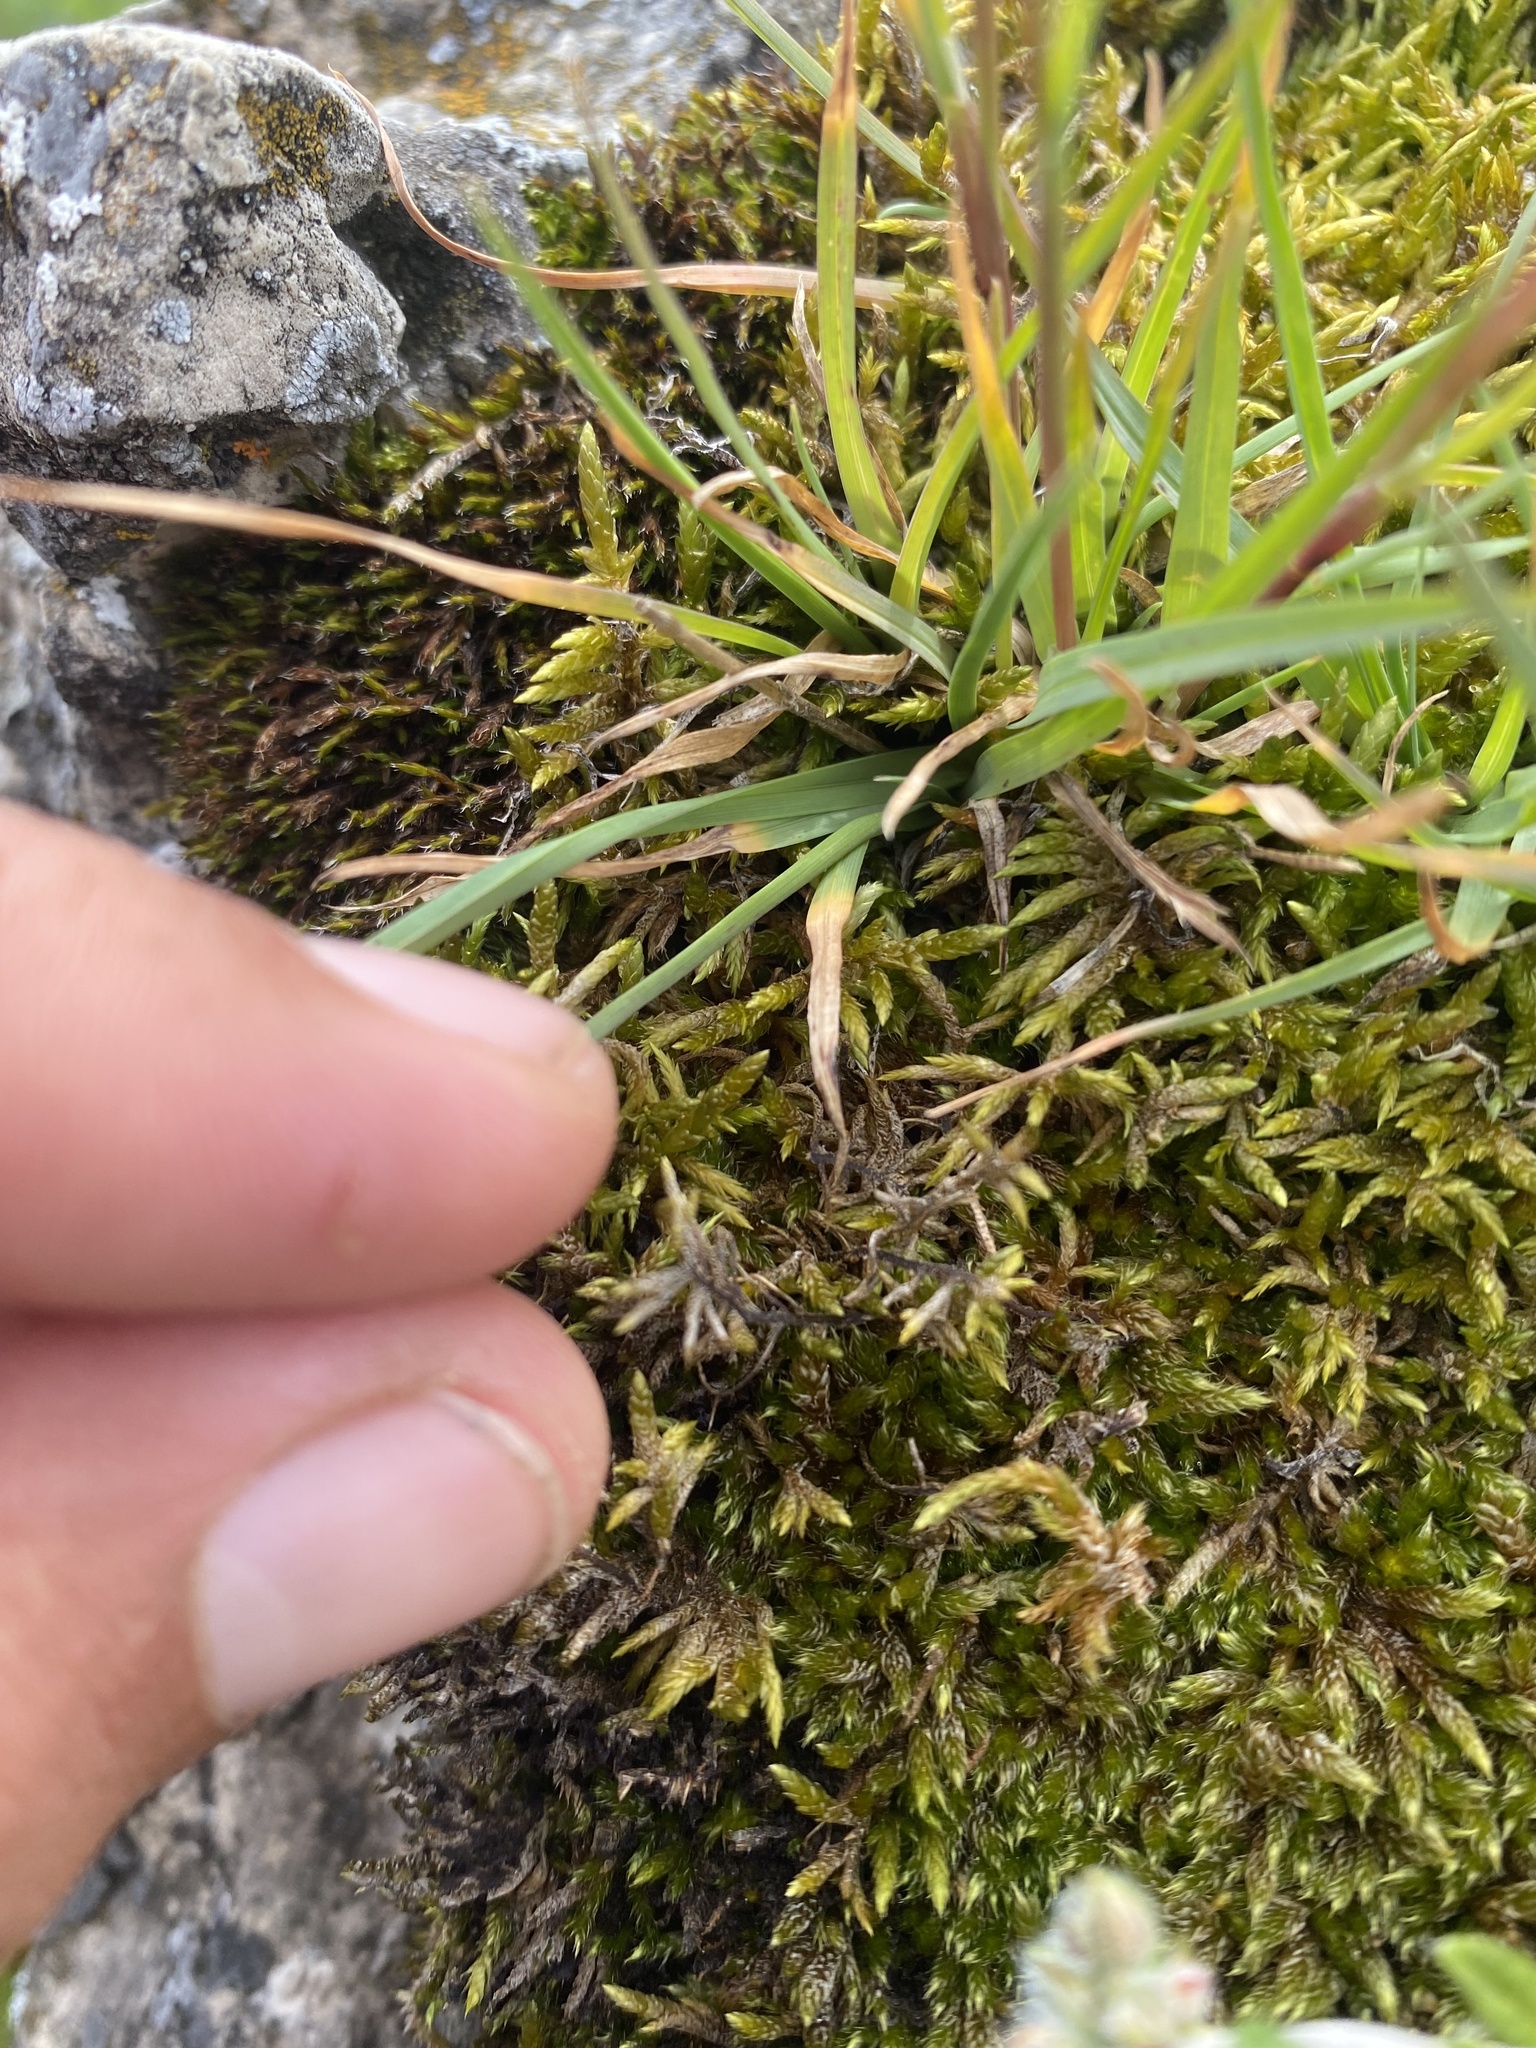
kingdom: Plantae
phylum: Tracheophyta
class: Liliopsida
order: Poales
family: Poaceae
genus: Poa
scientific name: Poa alpina
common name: Alpine bluegrass
